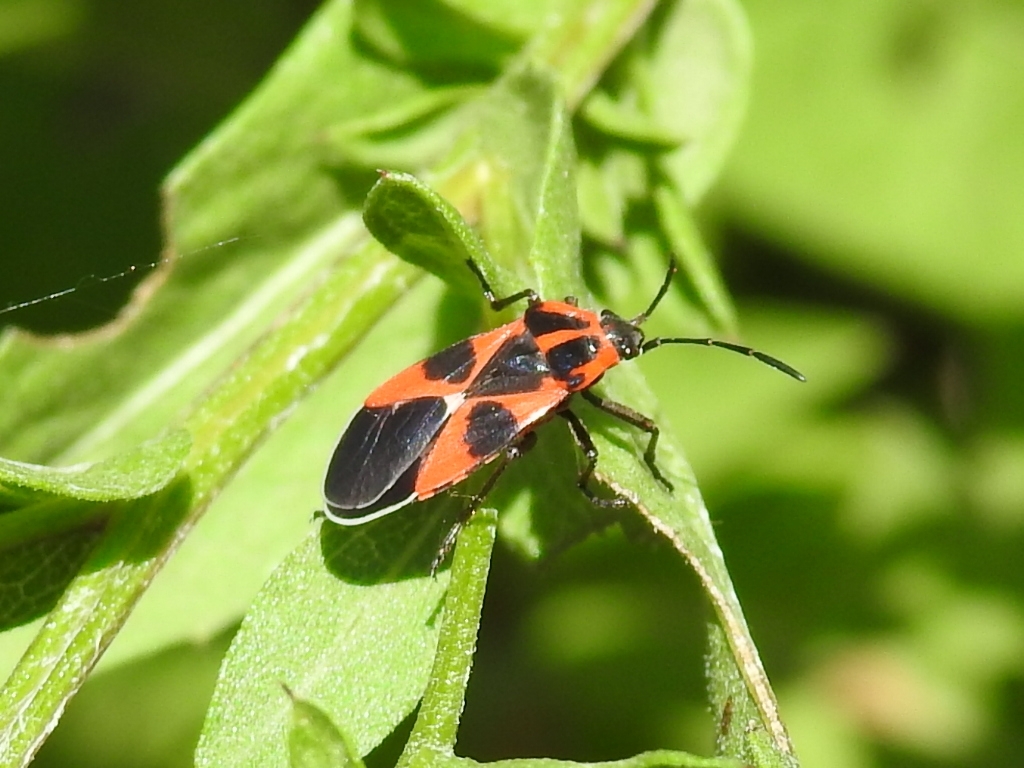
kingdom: Animalia
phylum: Arthropoda
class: Insecta
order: Hemiptera
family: Lygaeidae
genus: Tropidothorax
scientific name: Tropidothorax leucopterus
